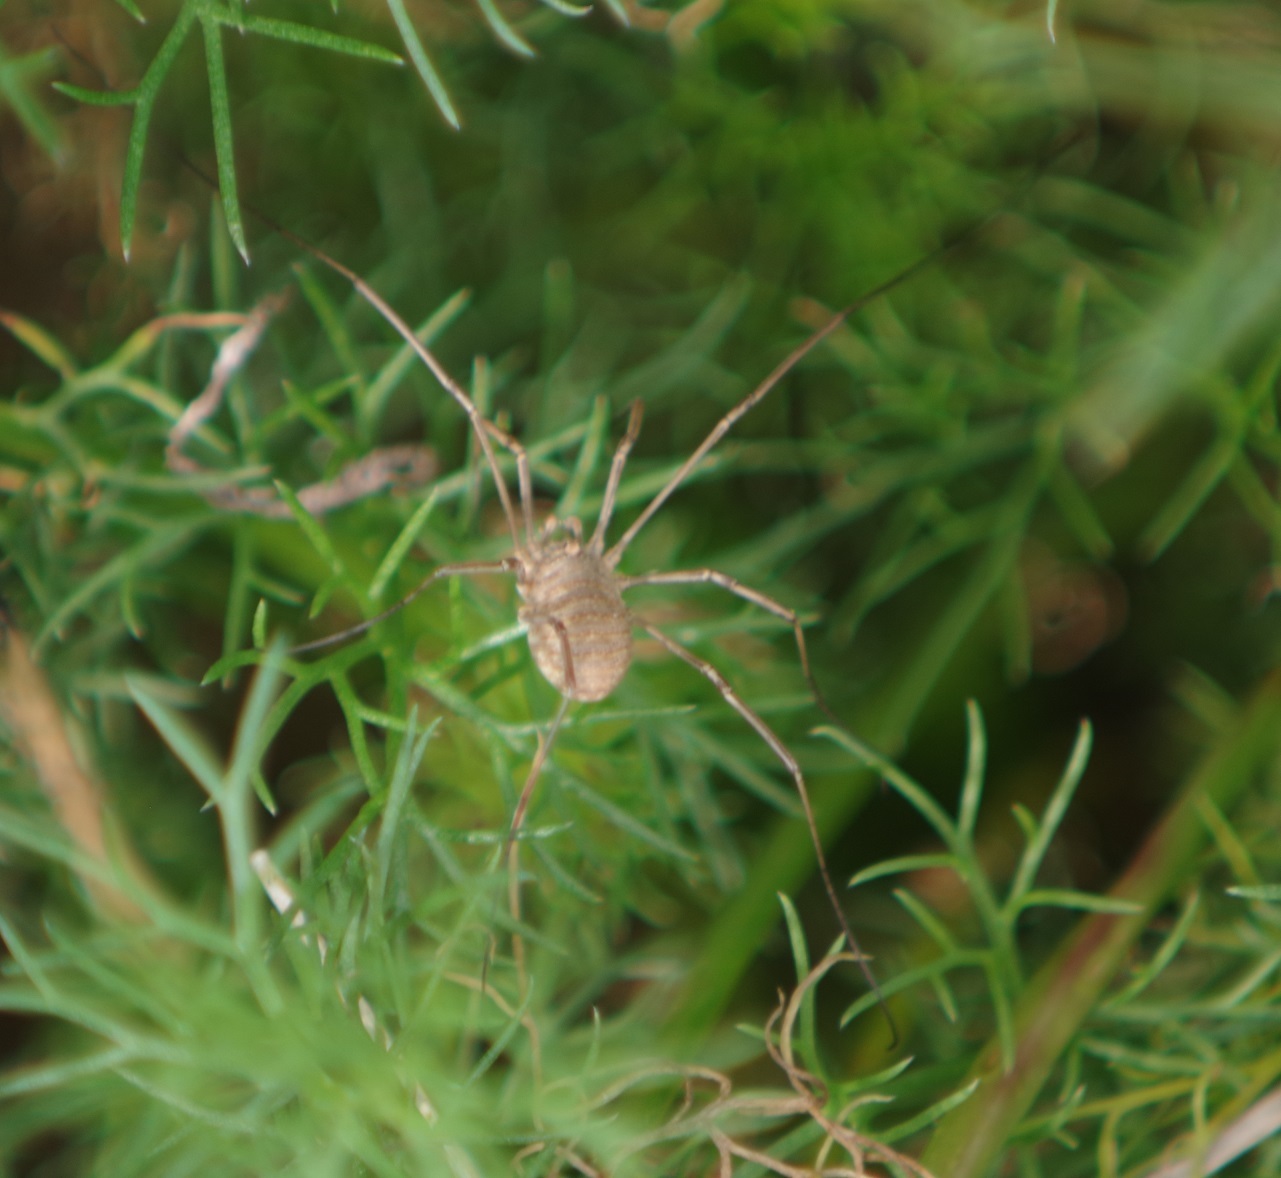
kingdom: Animalia
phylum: Arthropoda
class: Arachnida
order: Opiliones
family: Phalangiidae
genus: Phalangium
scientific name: Phalangium opilio
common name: Daddy longleg
